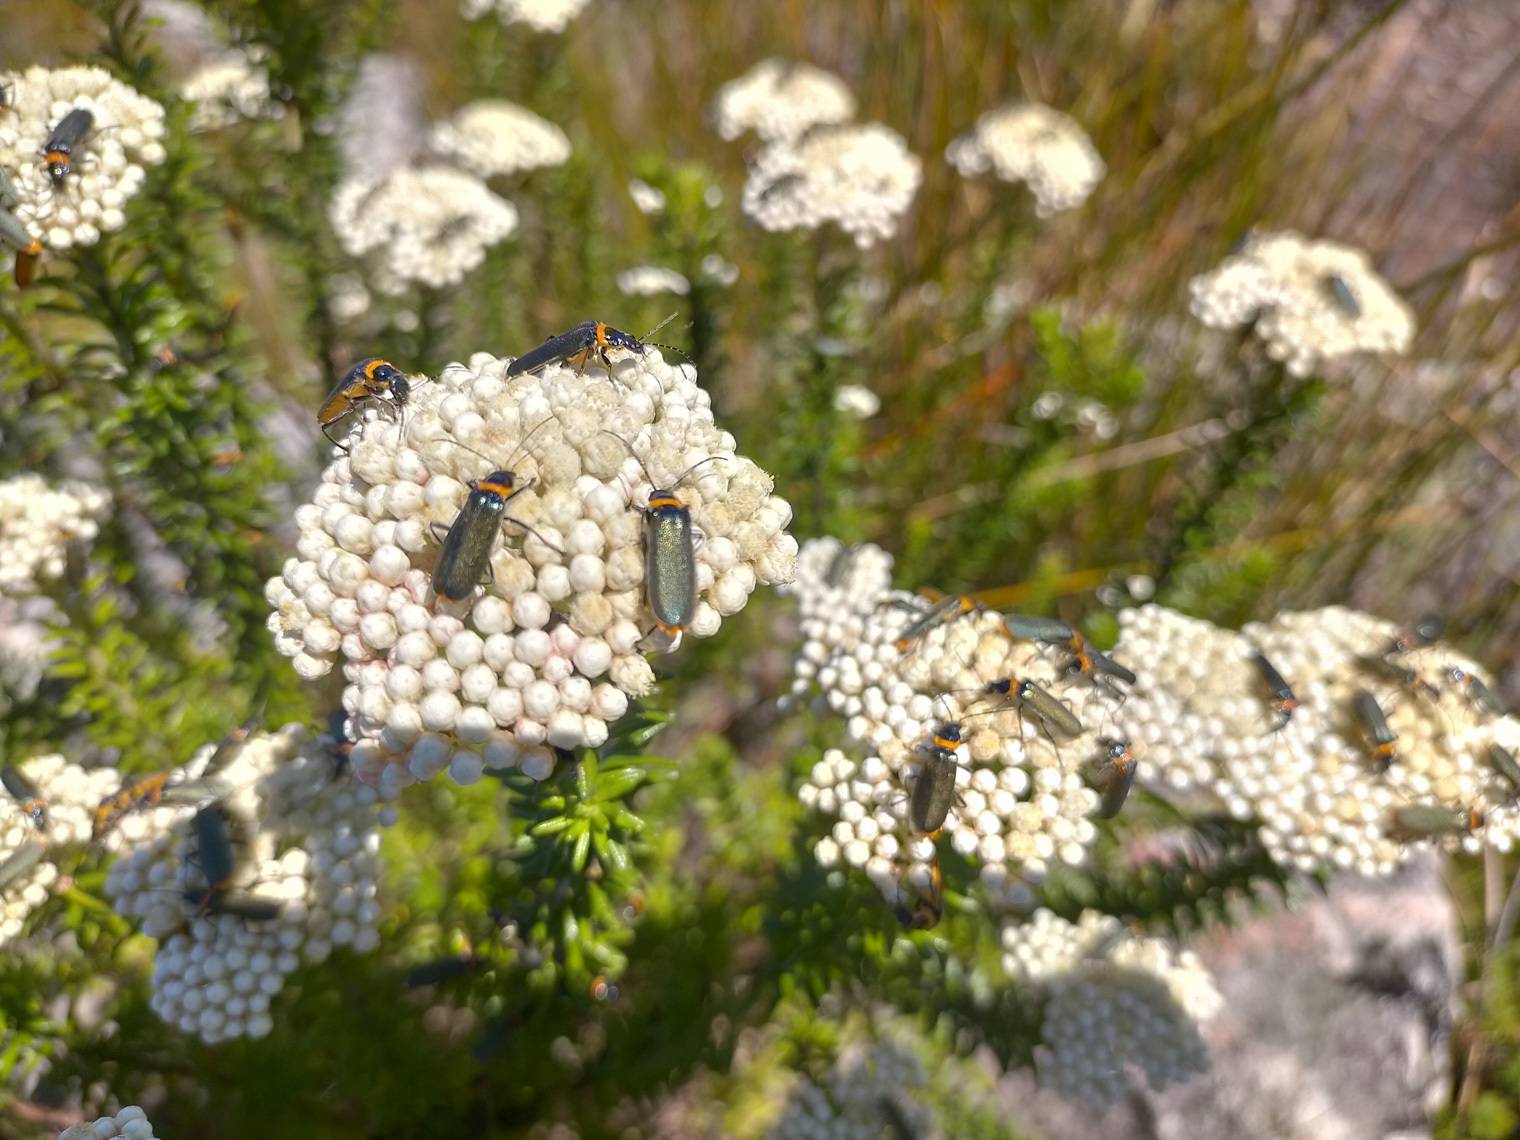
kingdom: Animalia
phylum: Arthropoda
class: Insecta
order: Coleoptera
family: Cantharidae
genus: Chauliognathus
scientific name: Chauliognathus
